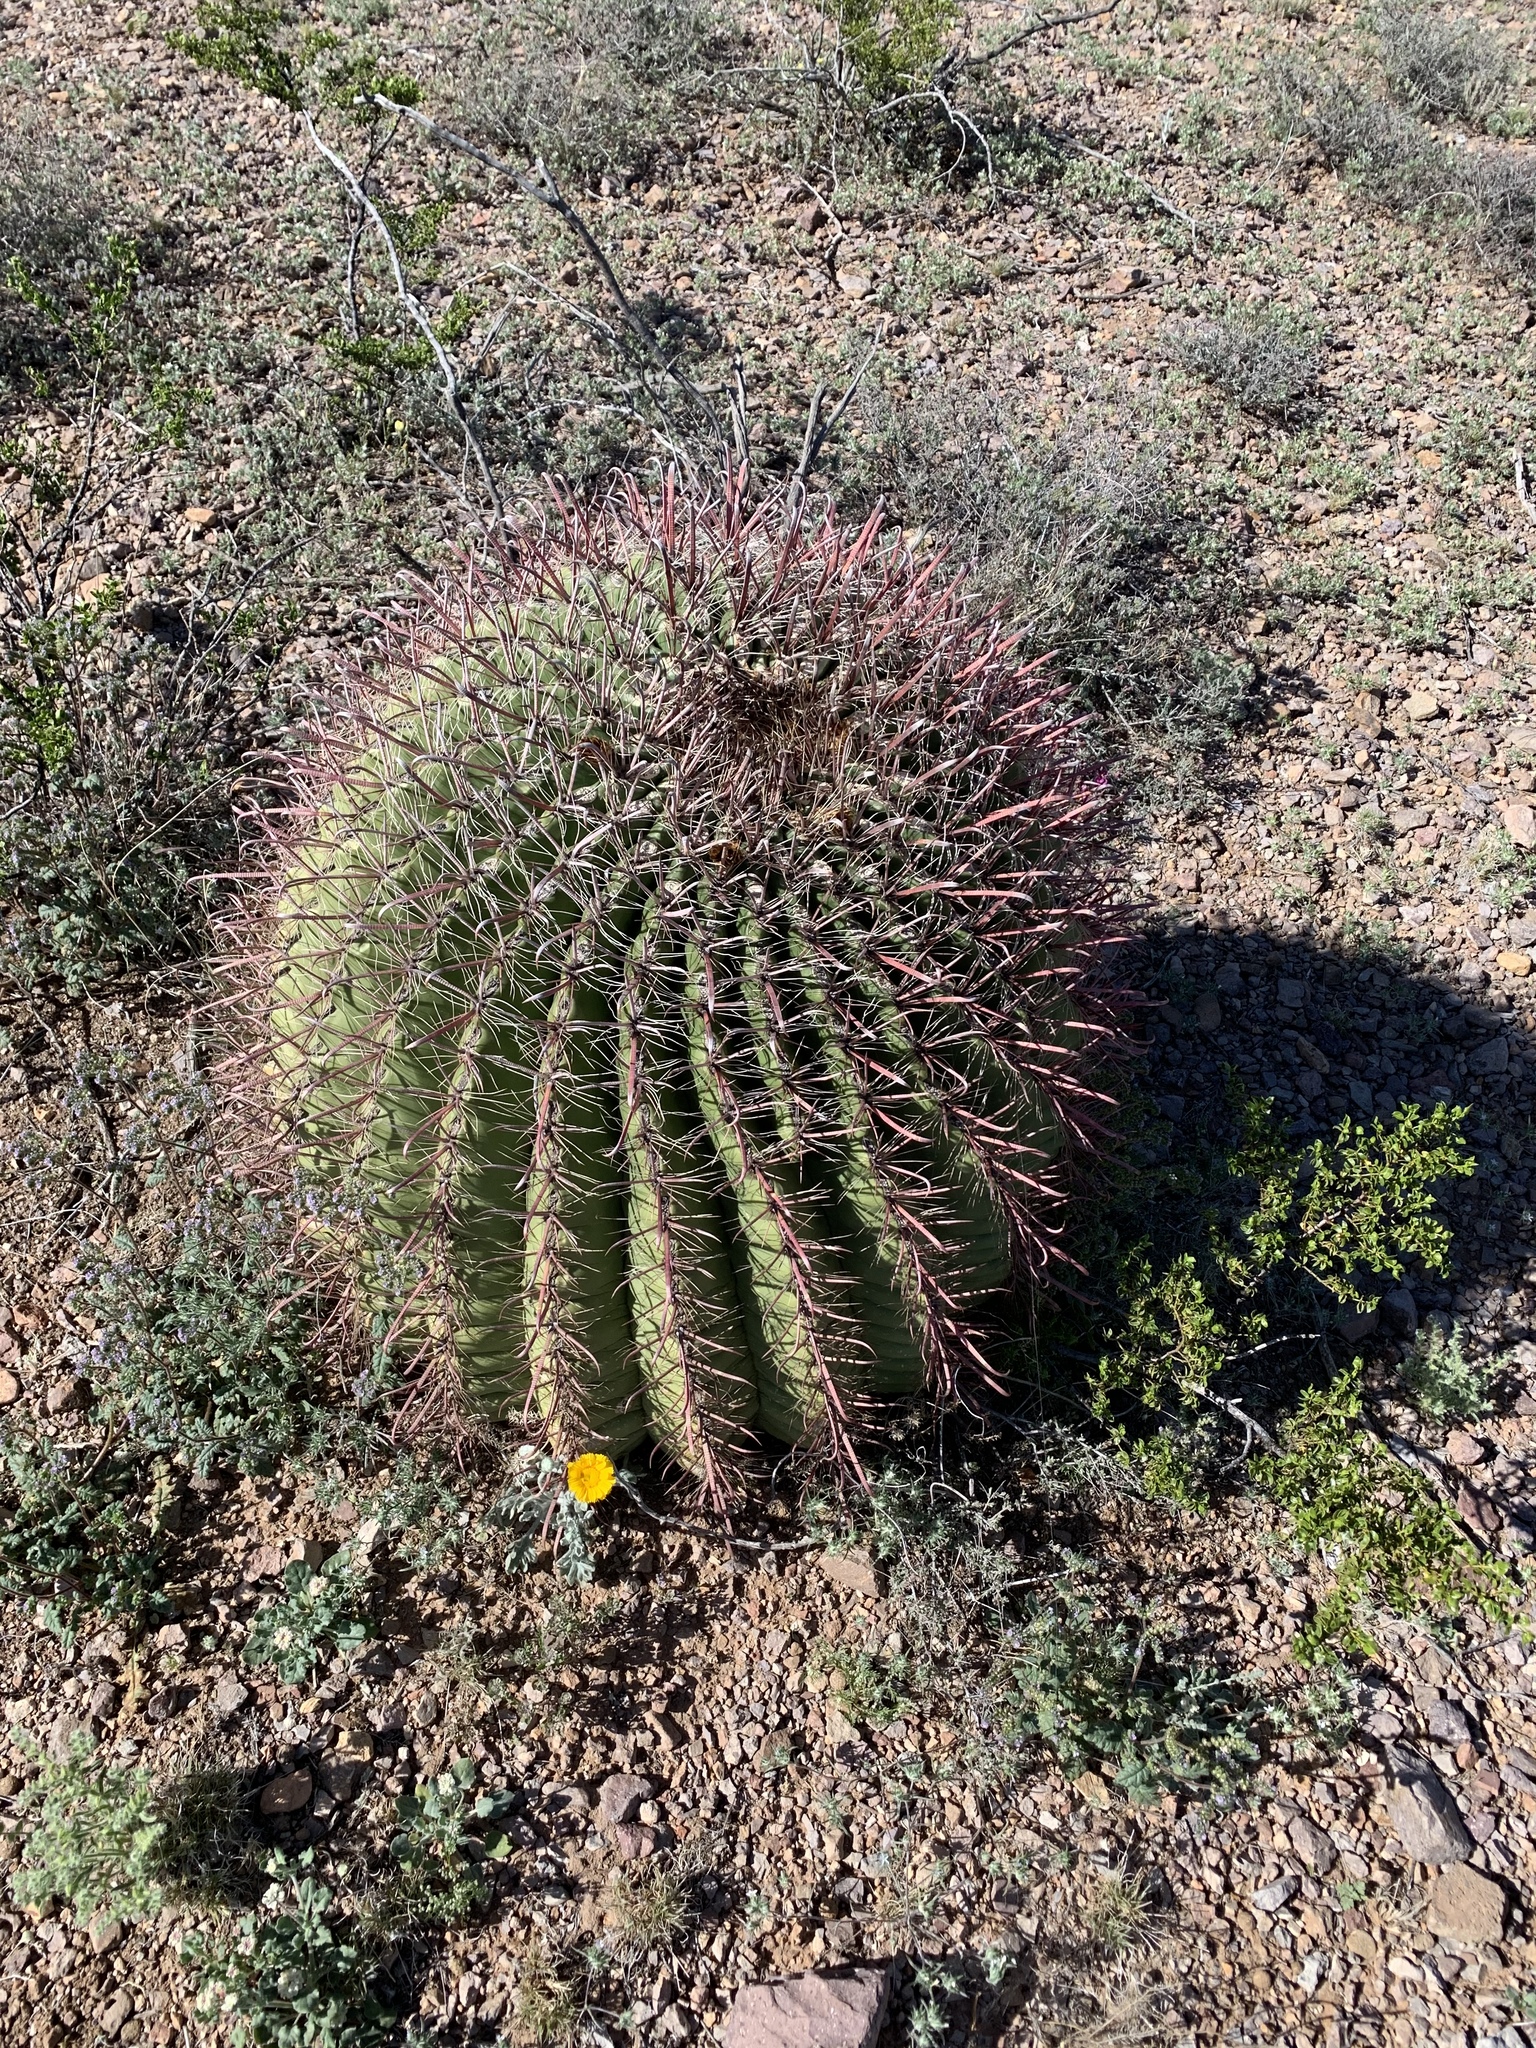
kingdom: Plantae
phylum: Tracheophyta
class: Magnoliopsida
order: Caryophyllales
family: Cactaceae
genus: Ferocactus
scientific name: Ferocactus wislizeni
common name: Candy barrel cactus
